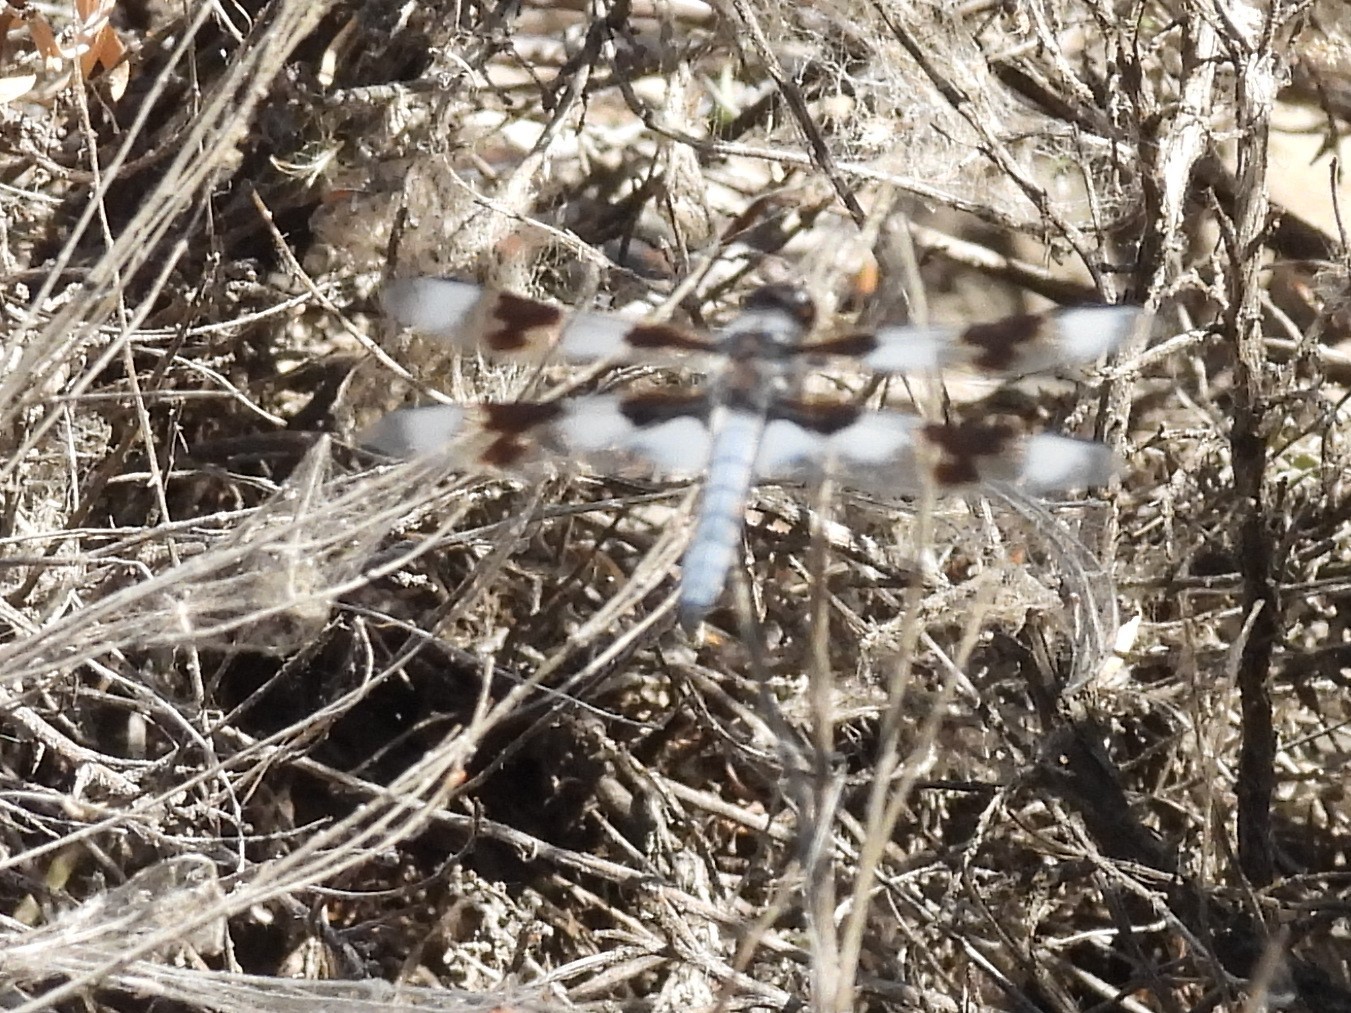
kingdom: Animalia
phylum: Arthropoda
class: Insecta
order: Odonata
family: Libellulidae
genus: Libellula
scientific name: Libellula forensis
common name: Eight-spotted skimmer
